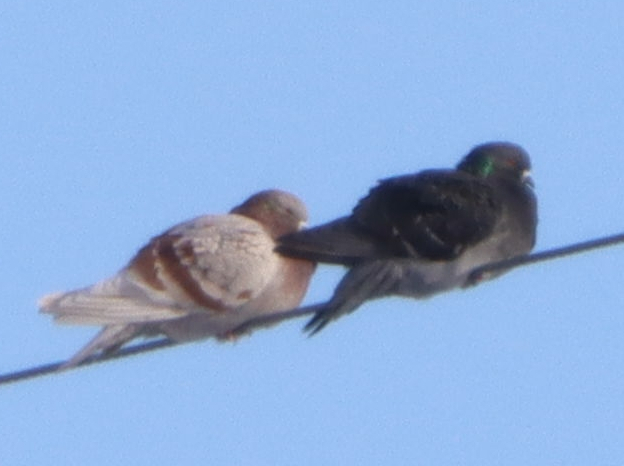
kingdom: Animalia
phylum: Chordata
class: Aves
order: Columbiformes
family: Columbidae
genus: Columba
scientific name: Columba livia
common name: Rock pigeon
